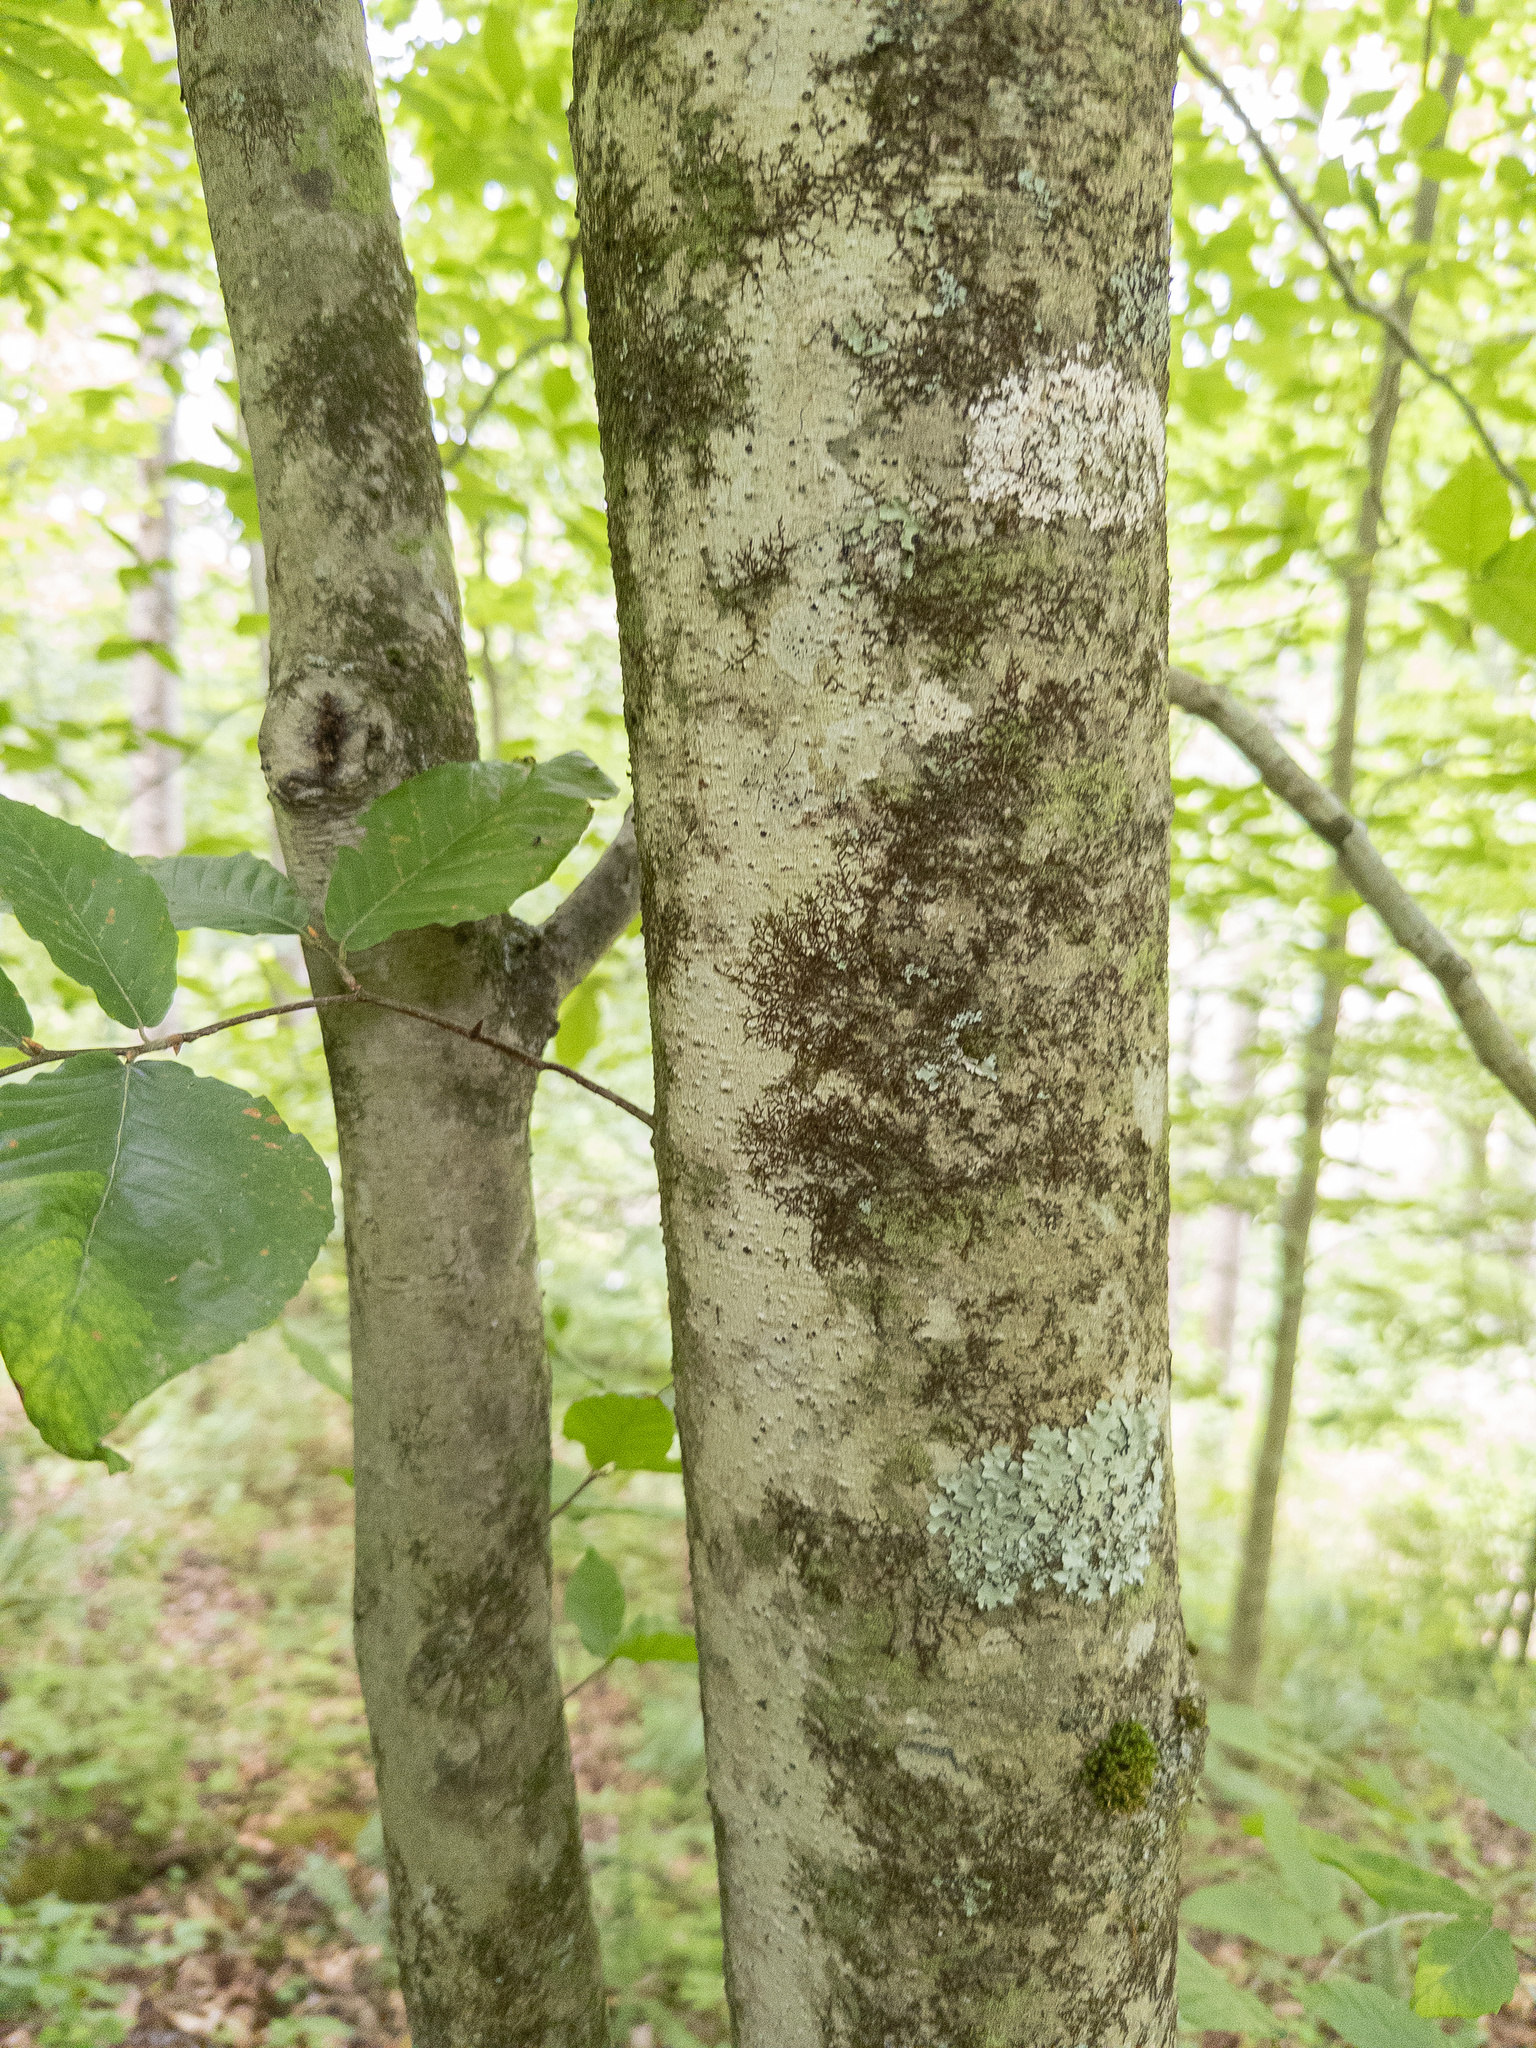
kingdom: Plantae
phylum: Tracheophyta
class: Magnoliopsida
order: Fagales
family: Fagaceae
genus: Fagus
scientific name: Fagus grandifolia
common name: American beech
